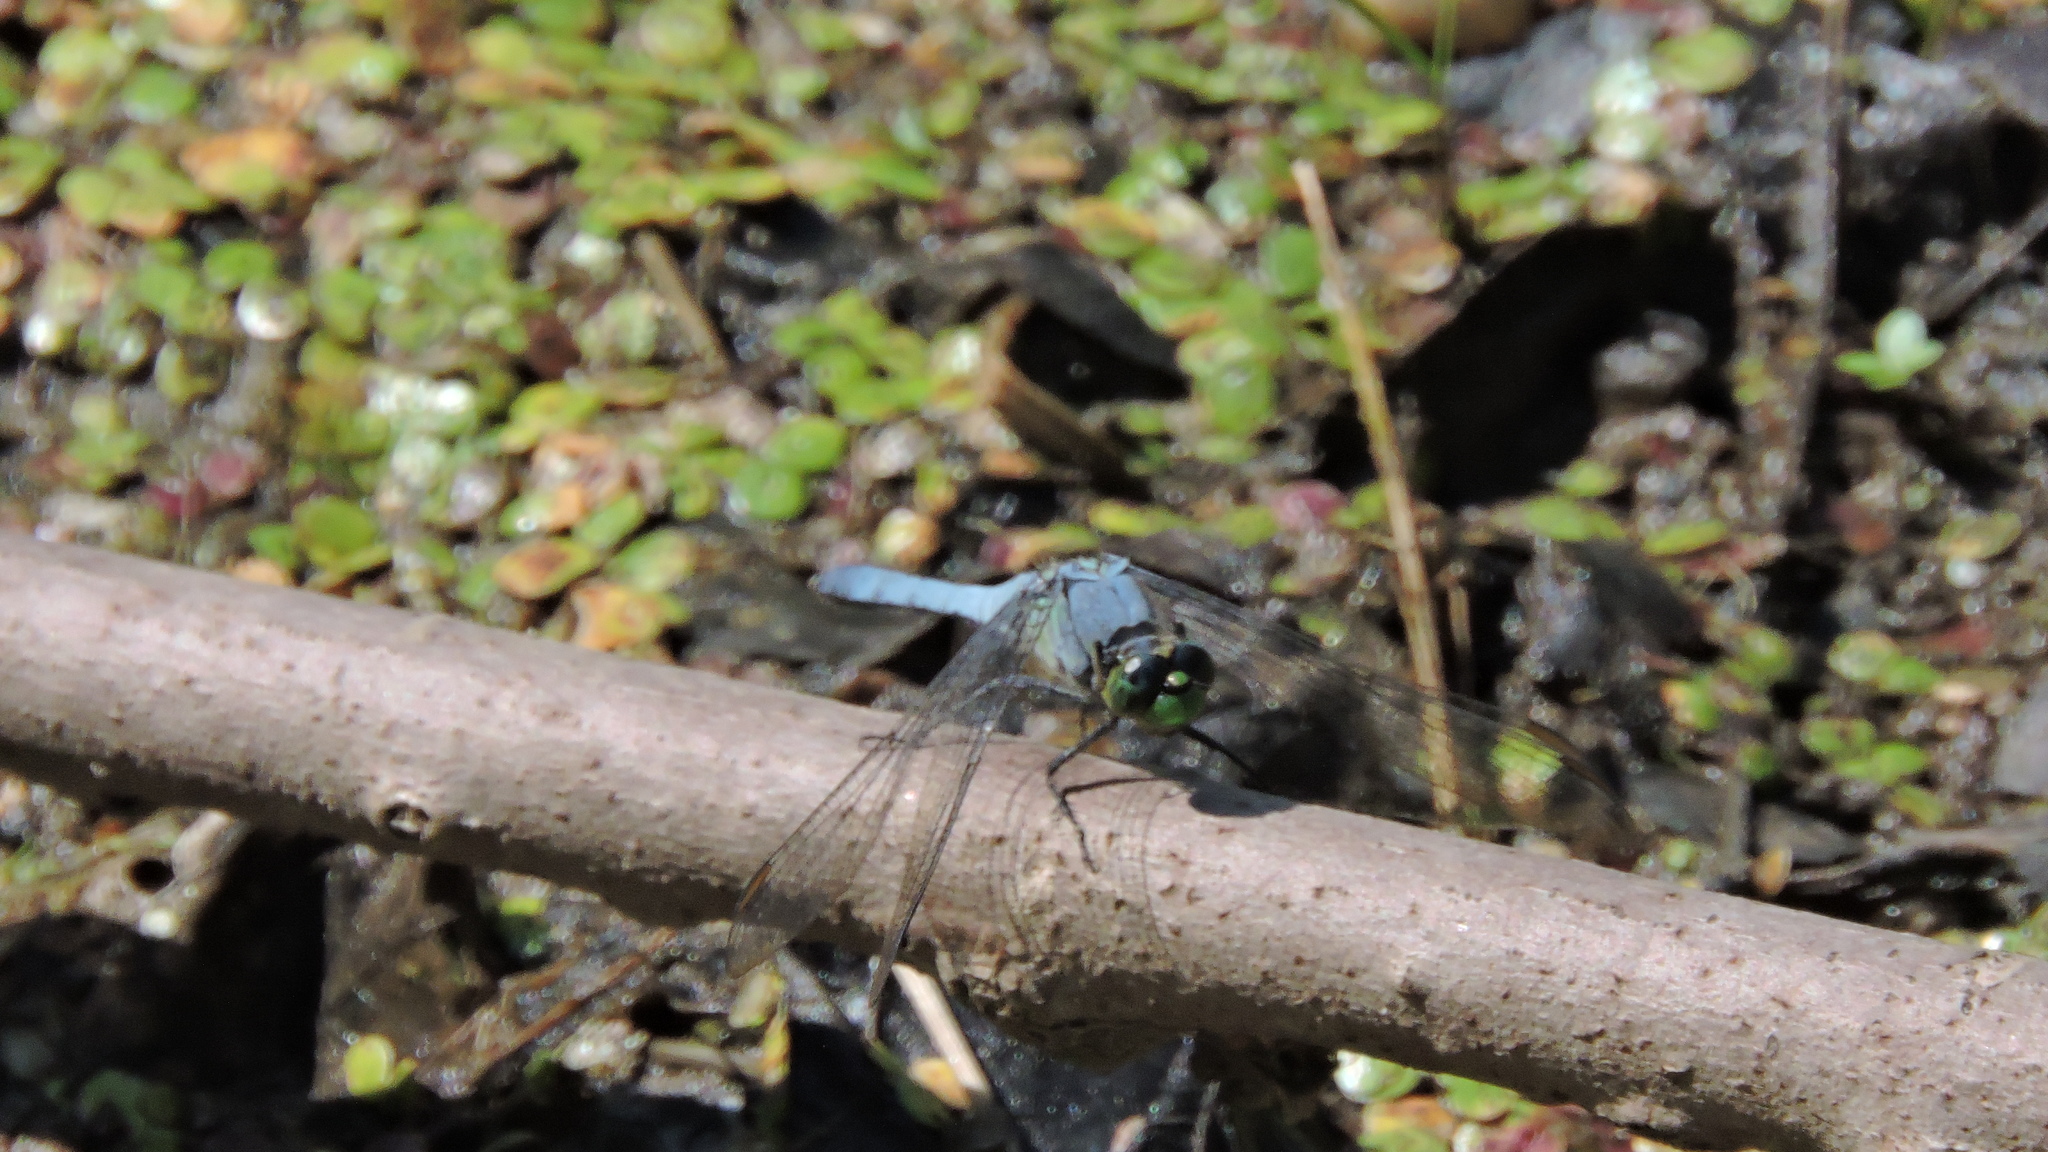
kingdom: Animalia
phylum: Arthropoda
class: Insecta
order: Odonata
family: Libellulidae
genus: Erythemis
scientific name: Erythemis simplicicollis
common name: Eastern pondhawk
